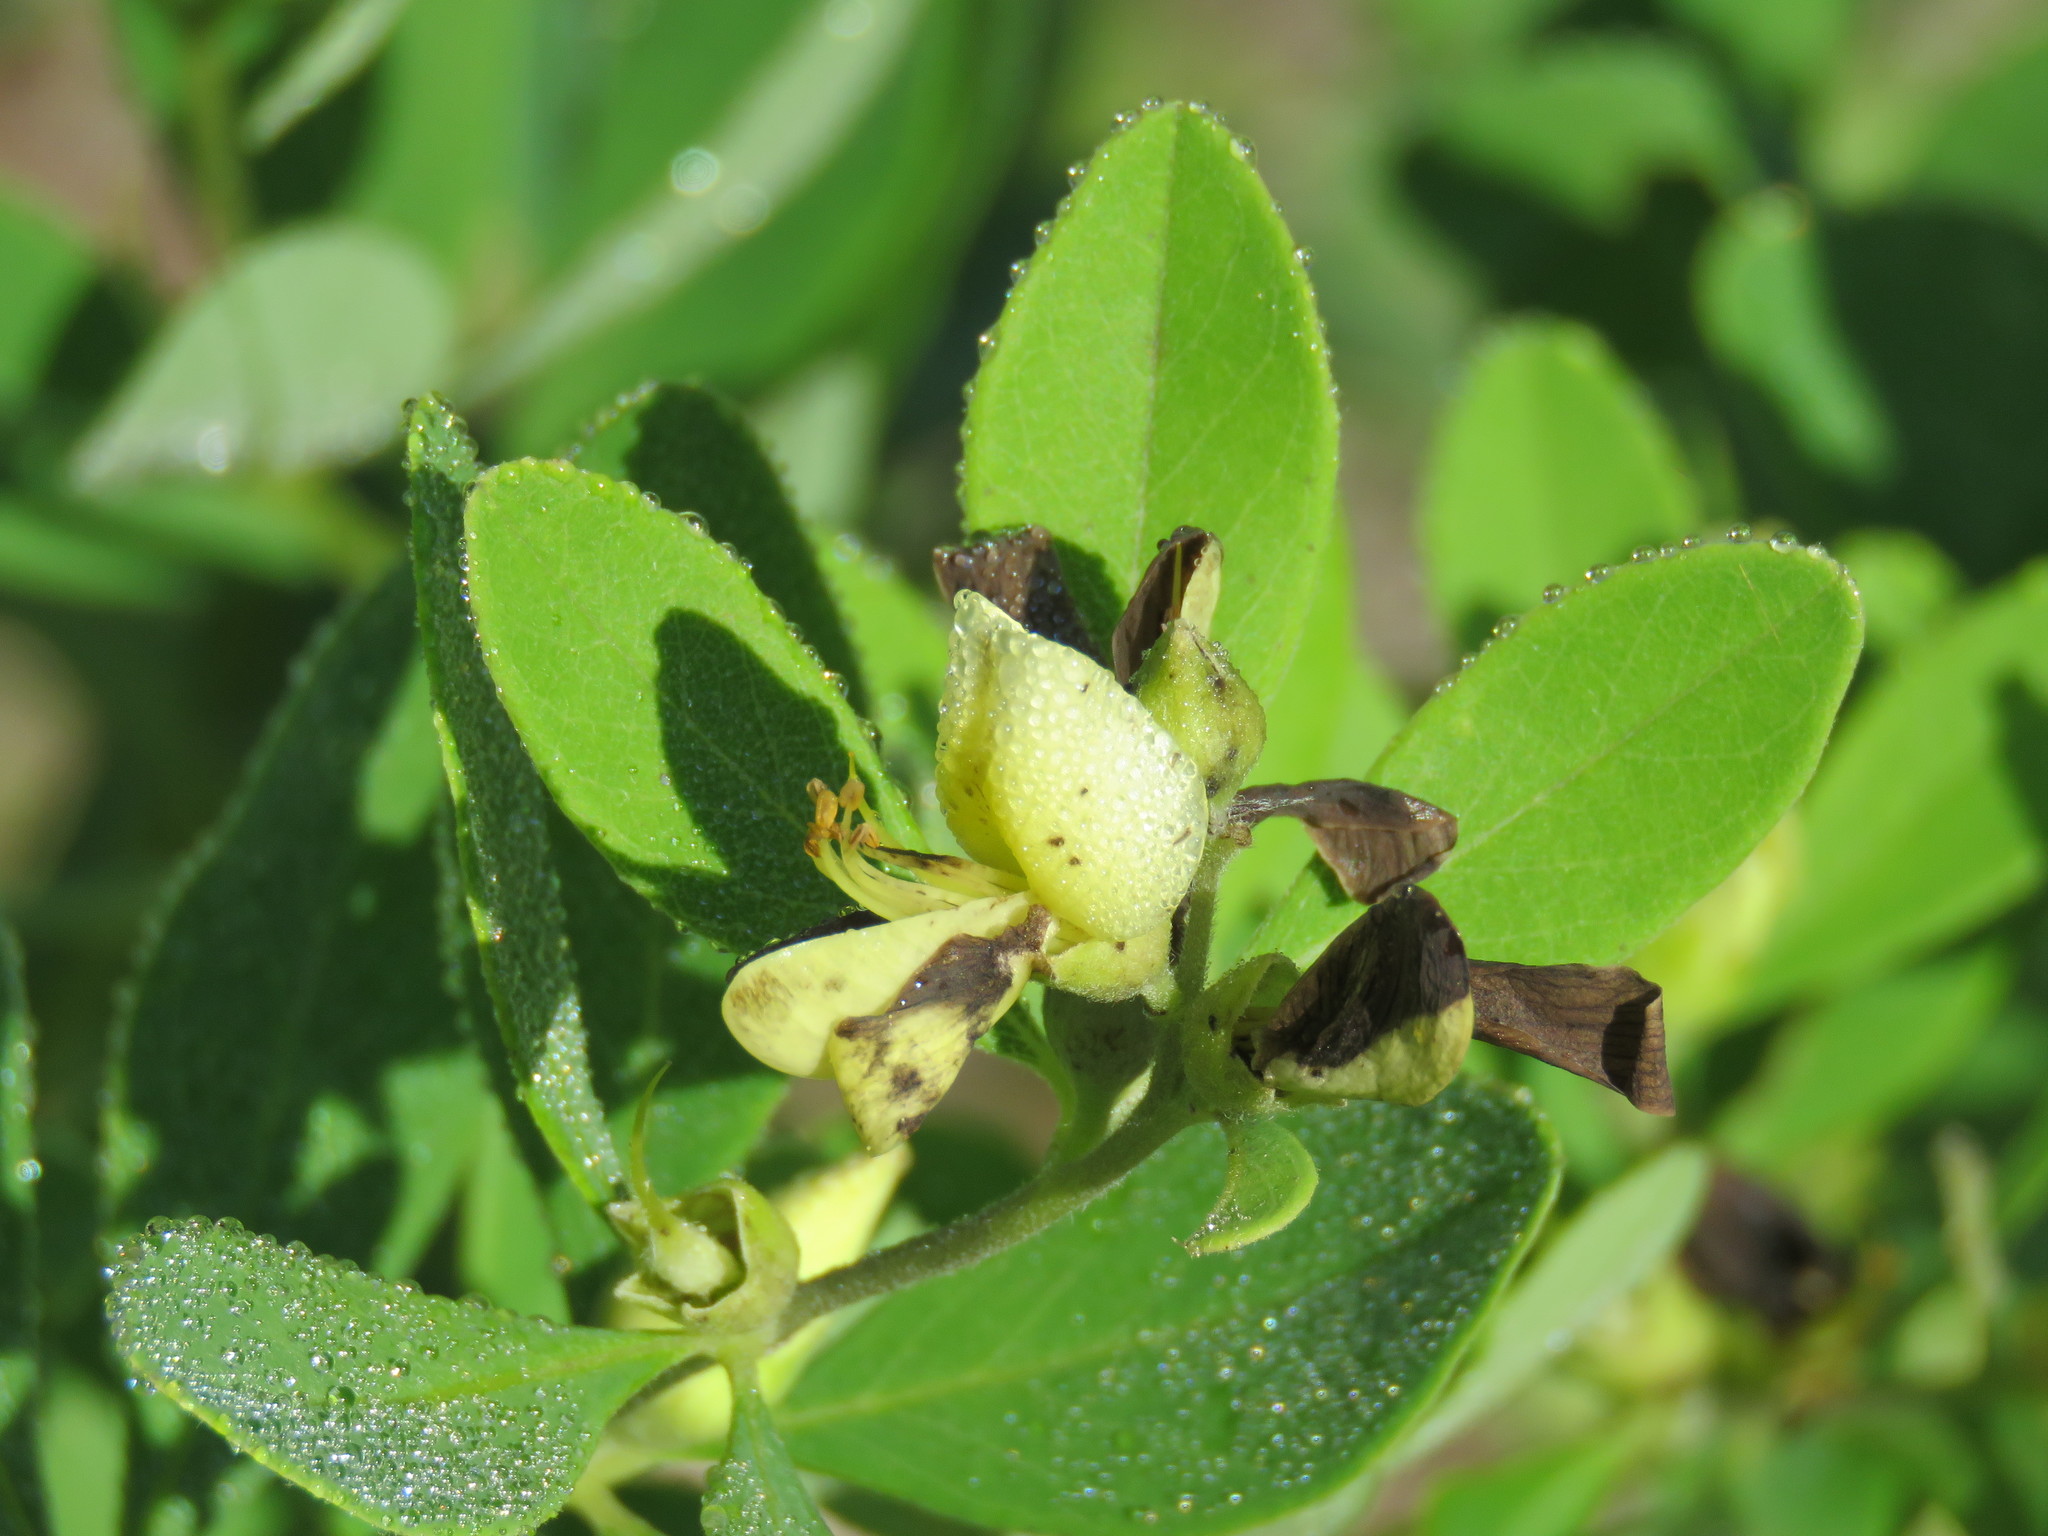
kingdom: Plantae
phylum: Tracheophyta
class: Magnoliopsida
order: Fabales
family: Fabaceae
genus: Baptisia
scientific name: Baptisia nuttalliana
